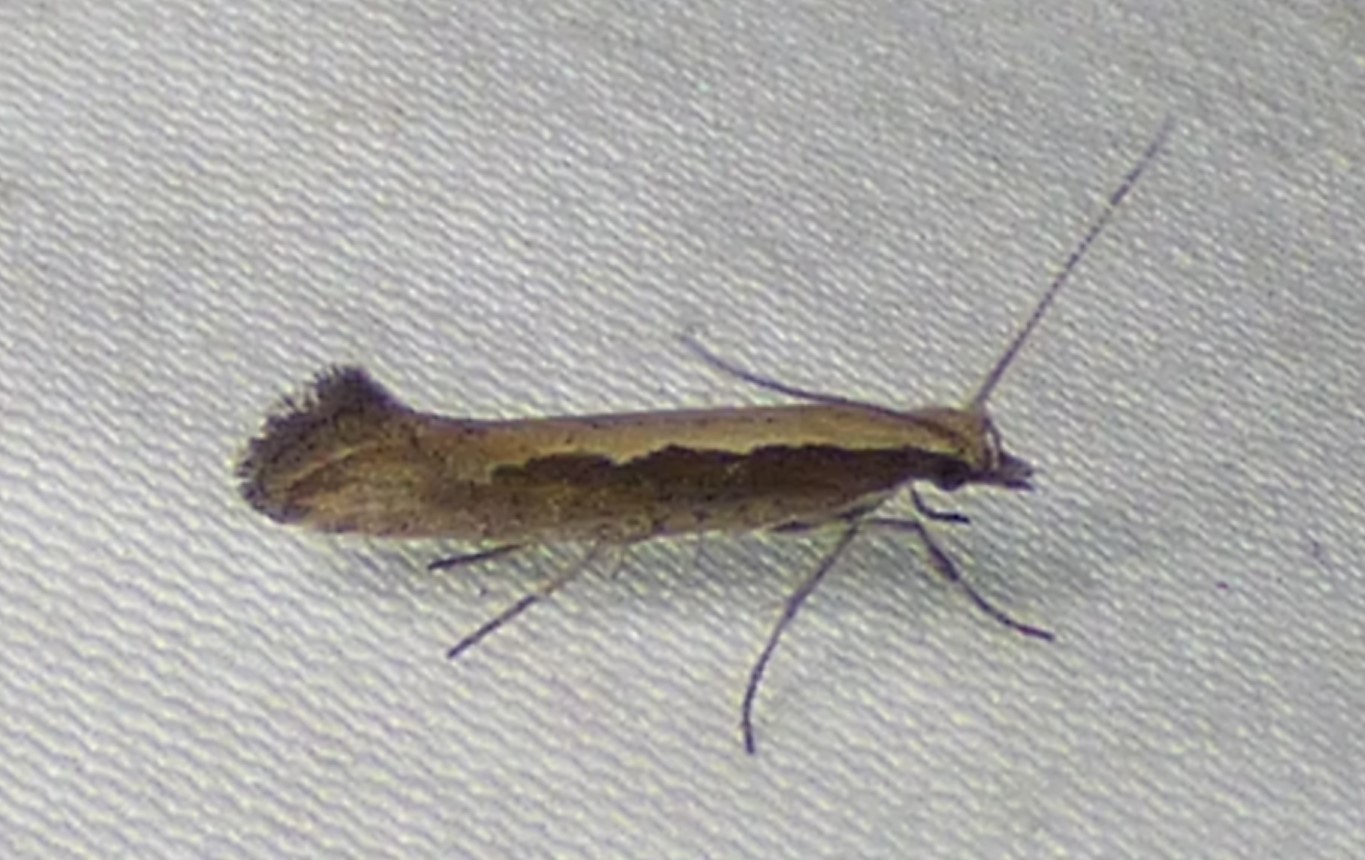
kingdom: Animalia
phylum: Arthropoda
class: Insecta
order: Lepidoptera
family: Plutellidae
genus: Plutella
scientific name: Plutella xylostella
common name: Diamond-back moth
